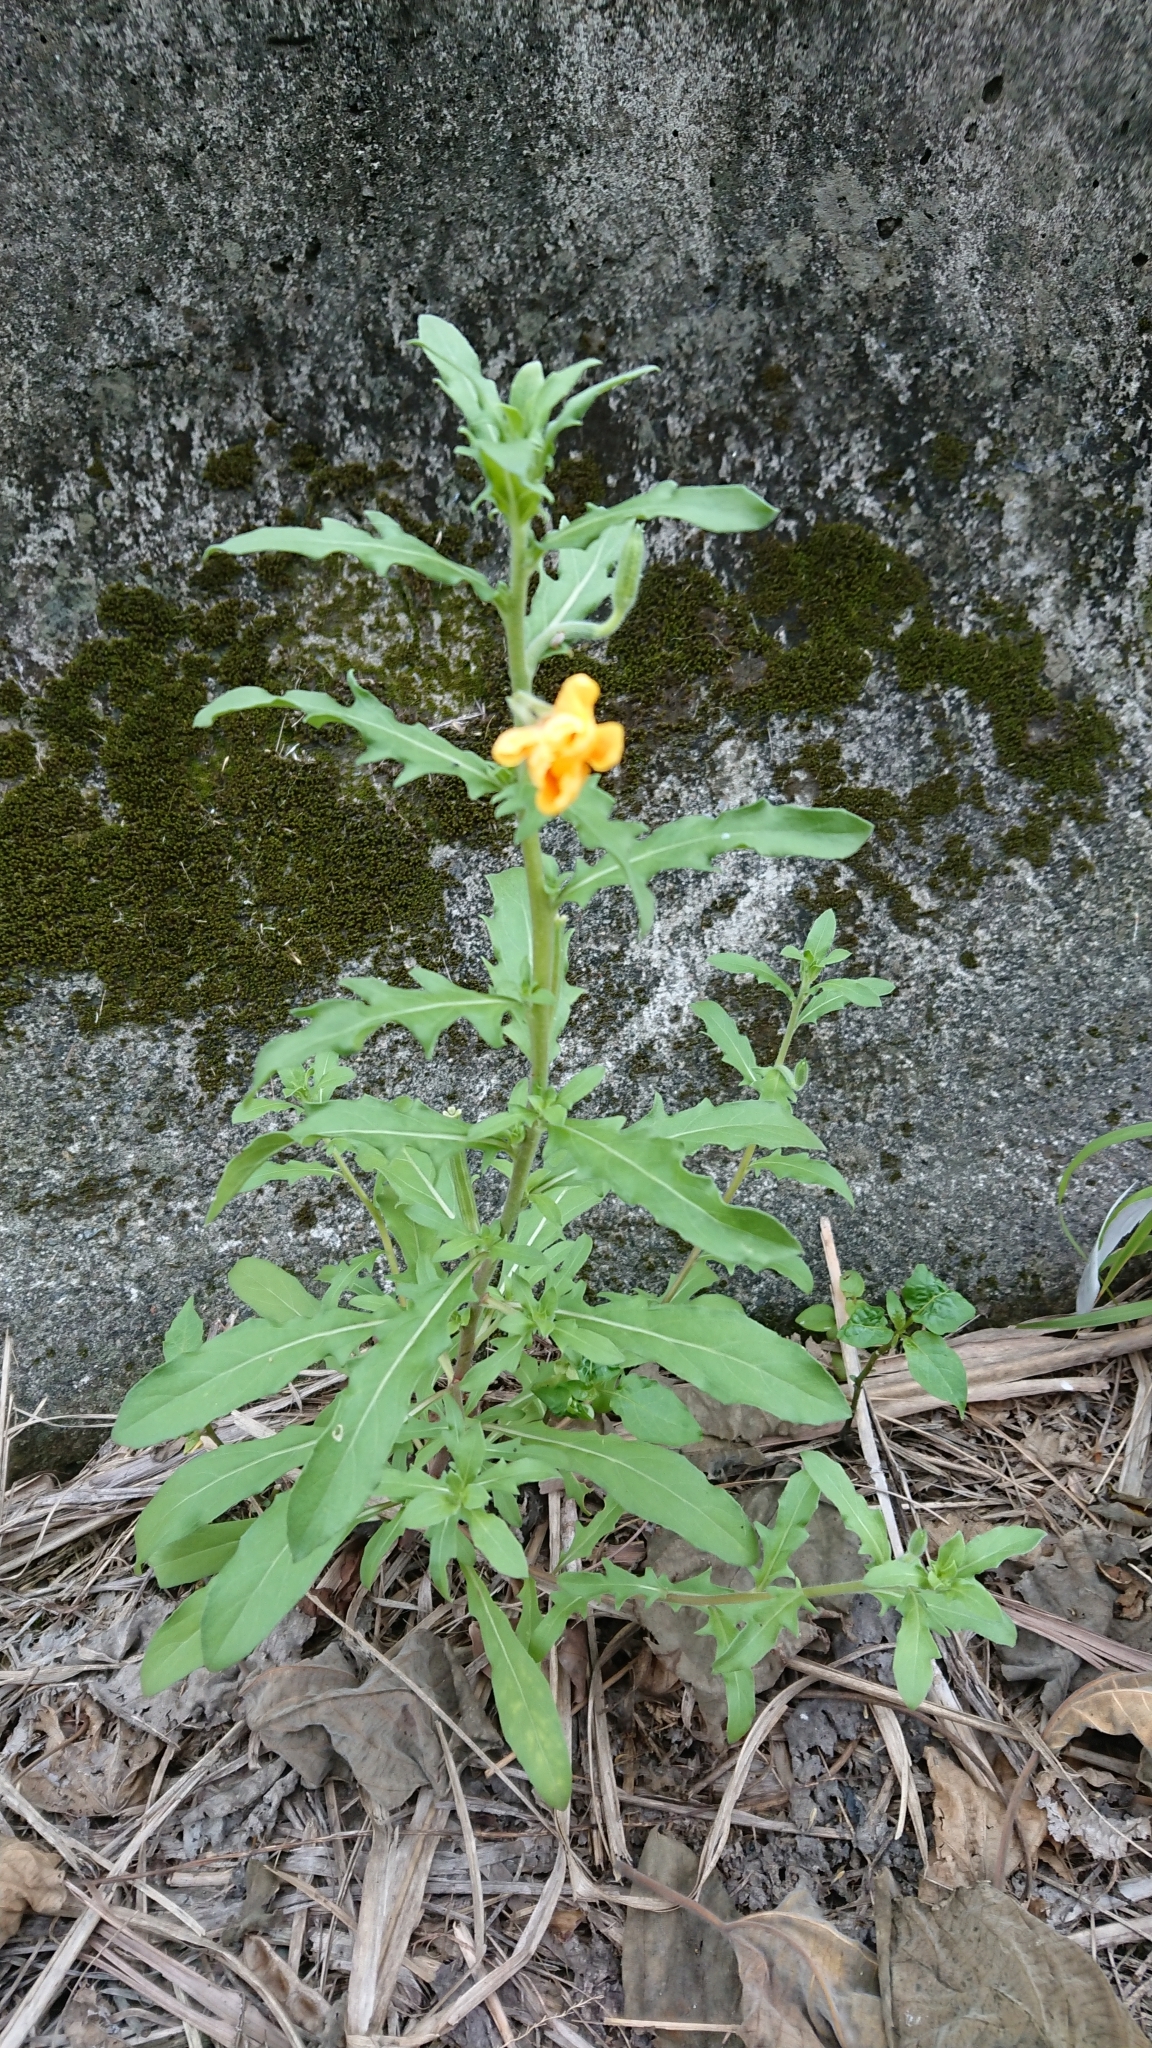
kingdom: Plantae
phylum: Tracheophyta
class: Magnoliopsida
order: Myrtales
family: Onagraceae
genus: Oenothera
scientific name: Oenothera laciniata
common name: Cut-leaved evening-primrose
